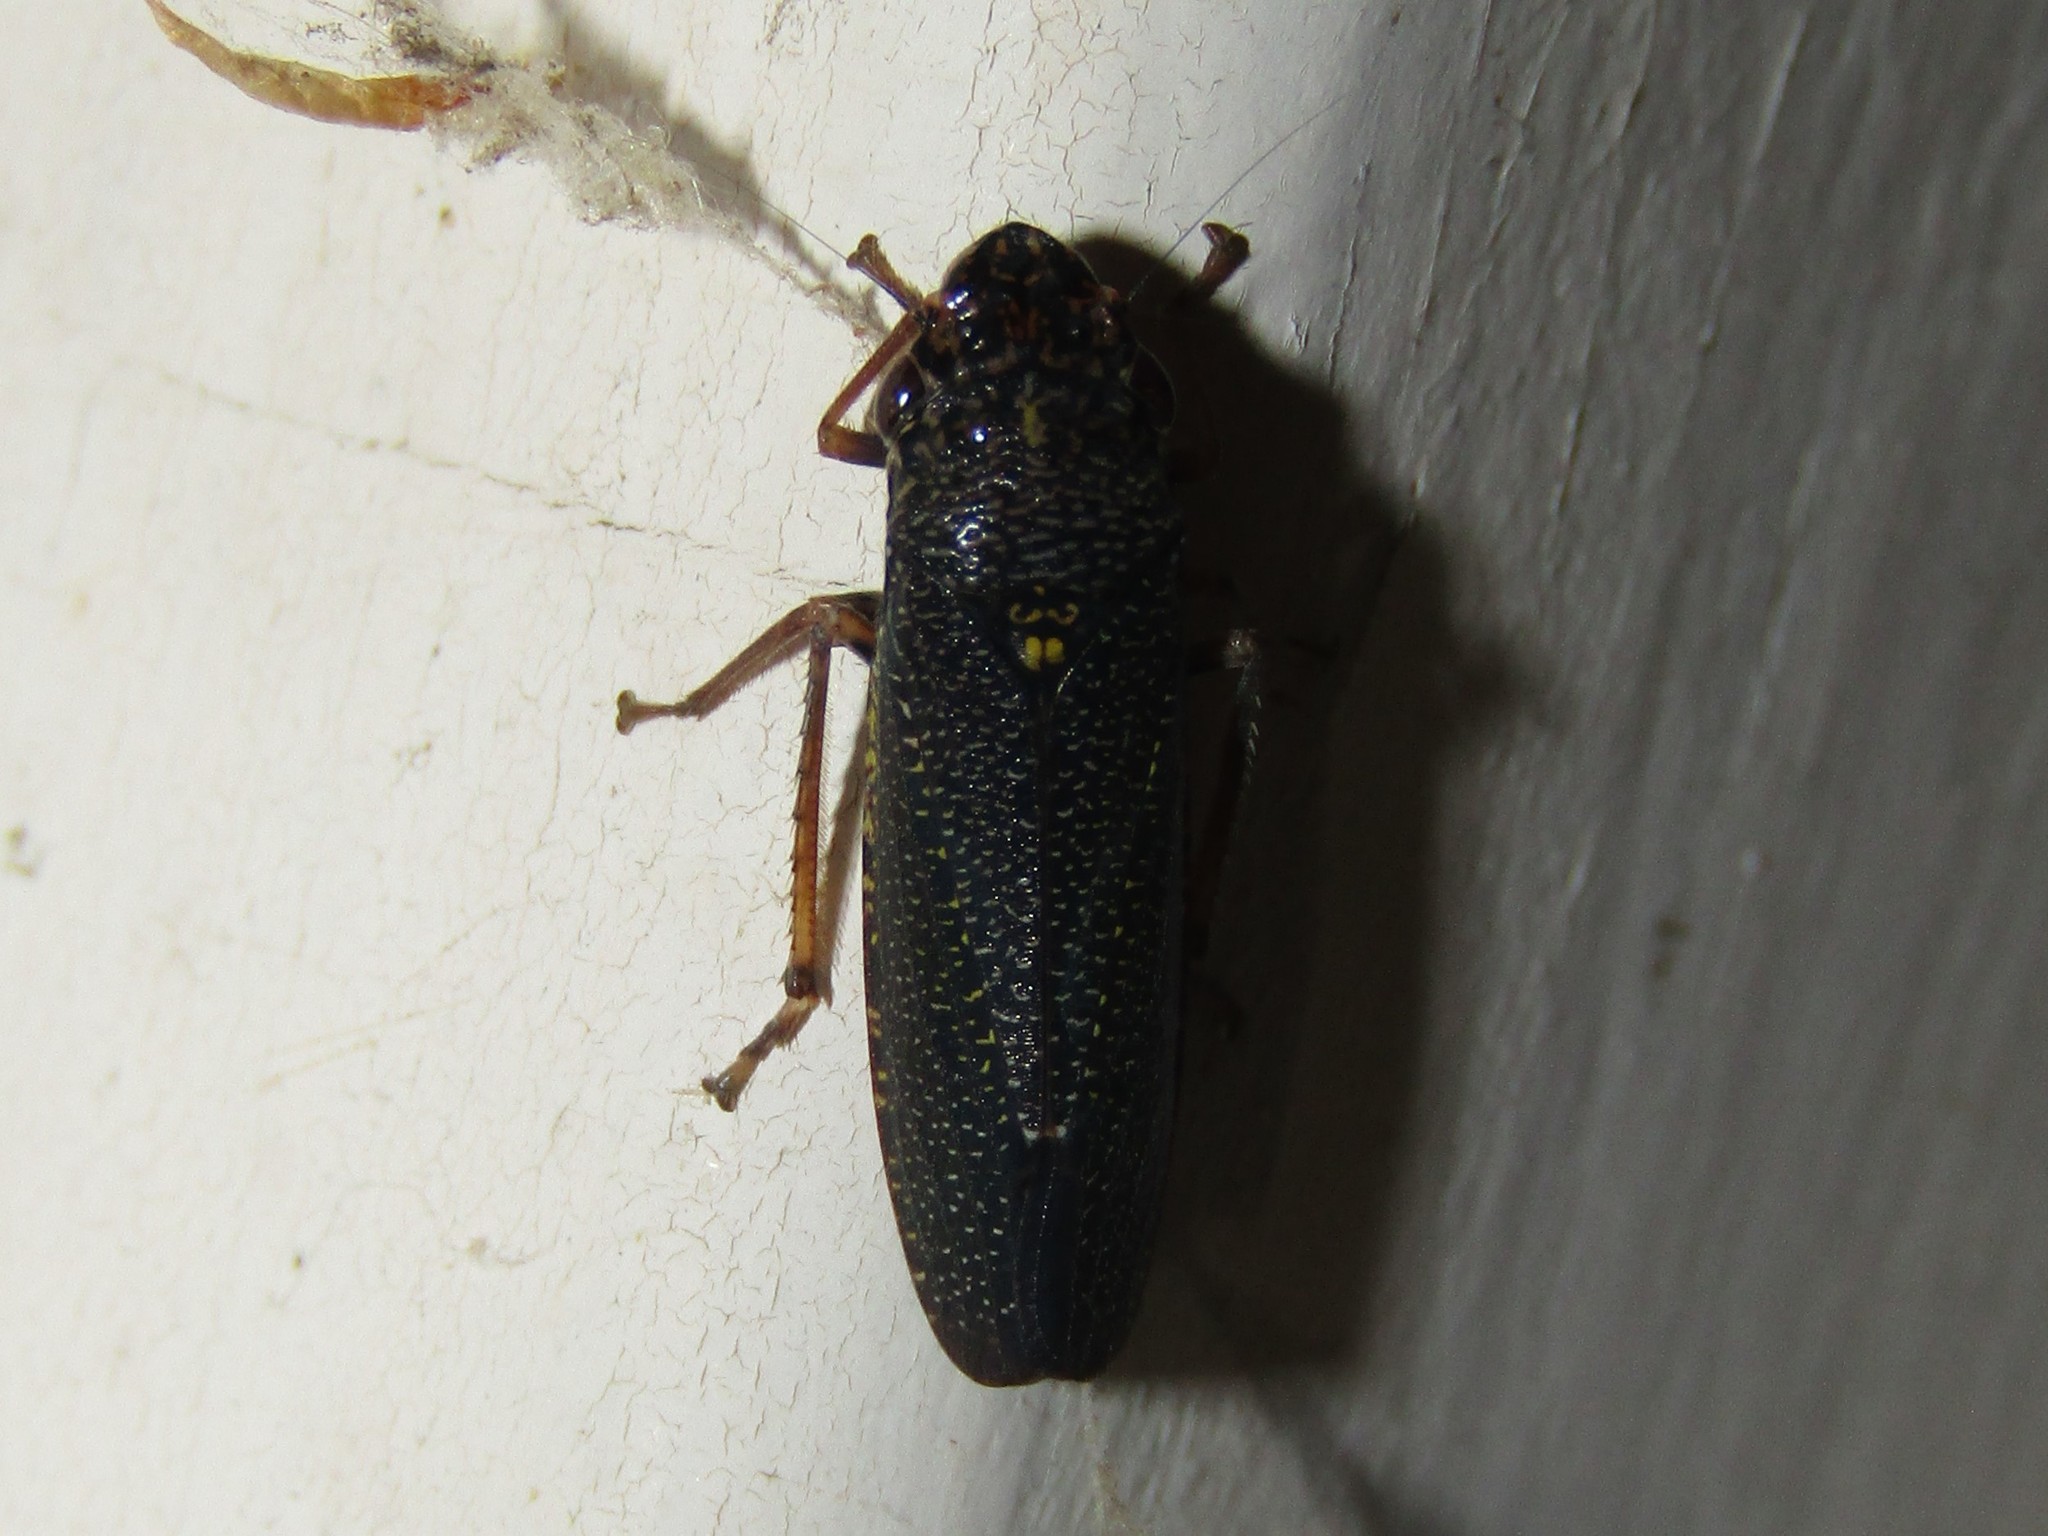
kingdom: Animalia
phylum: Arthropoda
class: Insecta
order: Hemiptera
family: Cicadellidae
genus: Paraulacizes
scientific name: Paraulacizes irrorata
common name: Speckled sharpshooter
